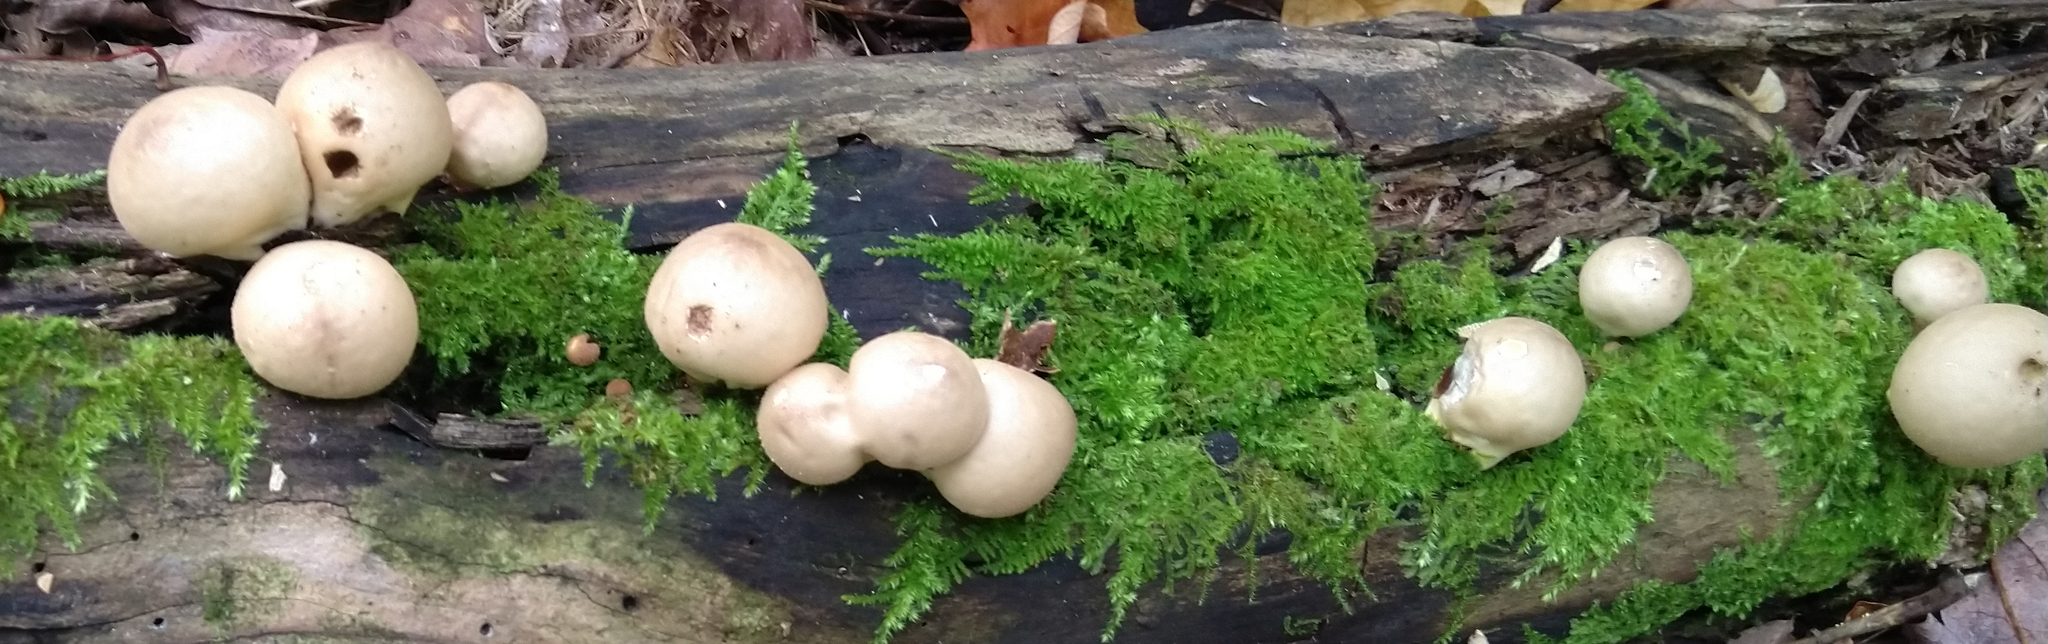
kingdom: Fungi
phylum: Basidiomycota
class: Agaricomycetes
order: Agaricales
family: Lycoperdaceae
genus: Apioperdon
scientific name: Apioperdon pyriforme
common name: Pear-shaped puffball
